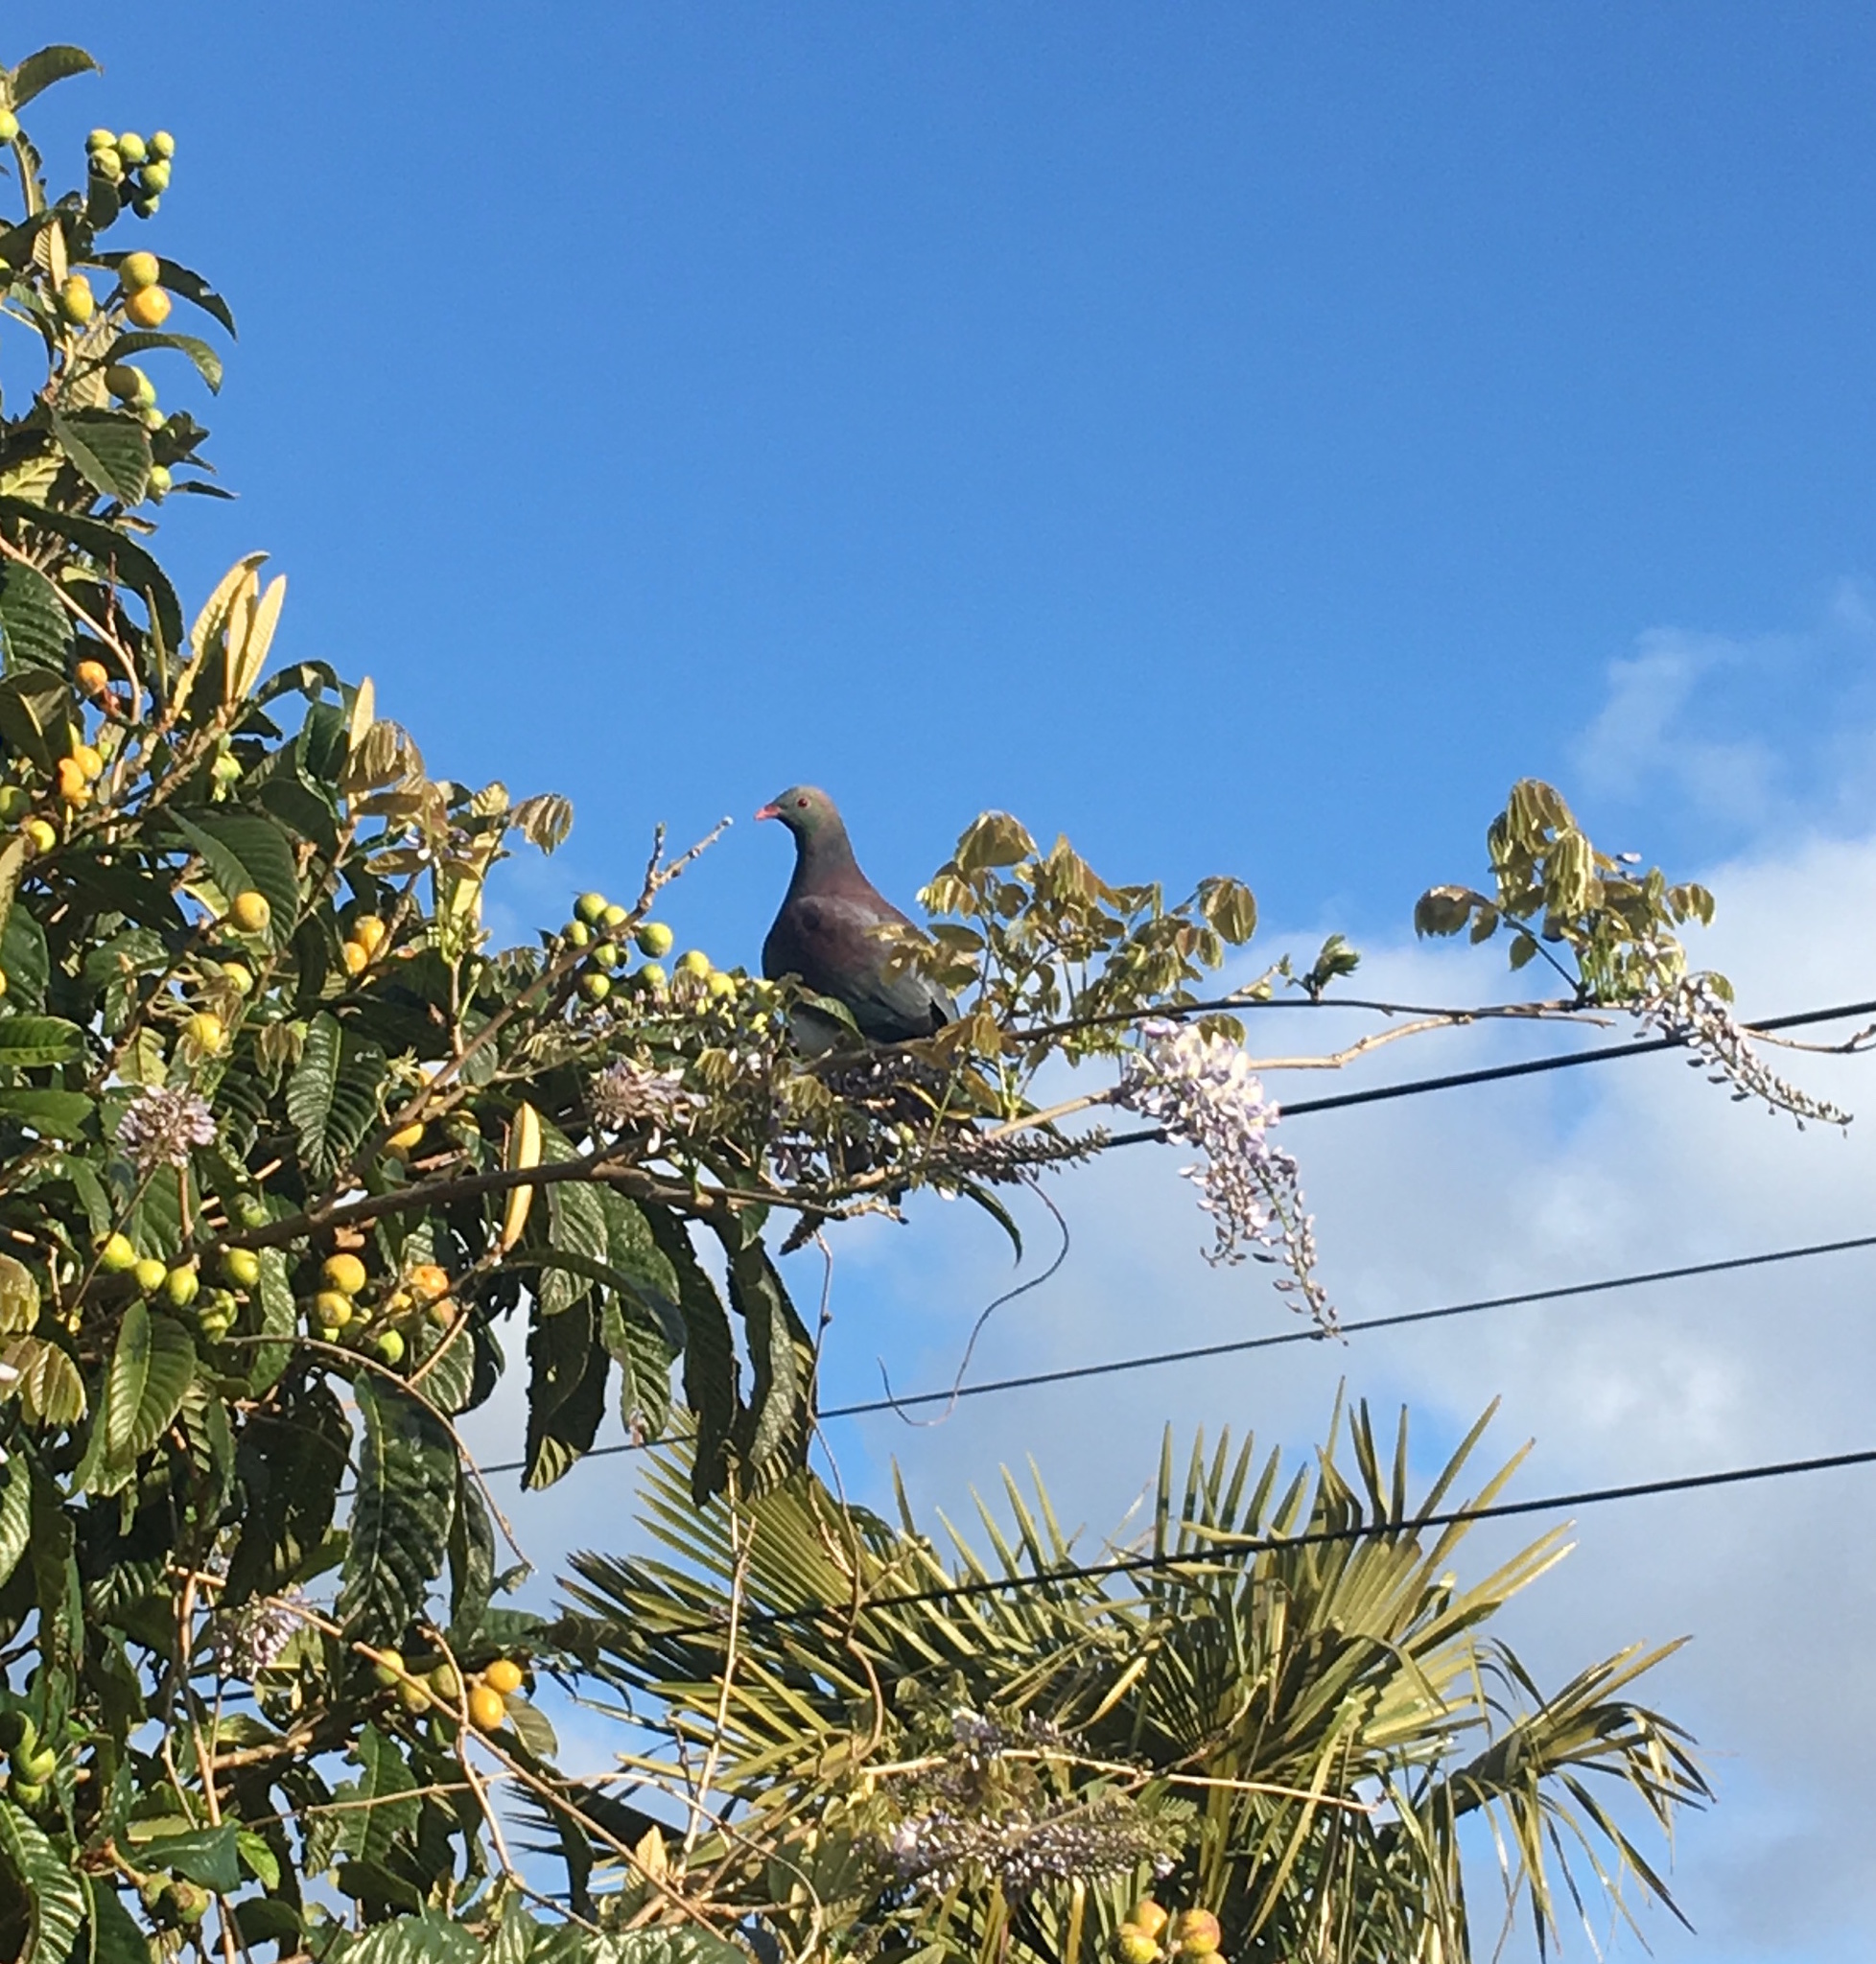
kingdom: Animalia
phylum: Chordata
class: Aves
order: Columbiformes
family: Columbidae
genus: Hemiphaga
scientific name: Hemiphaga novaeseelandiae
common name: New zealand pigeon
